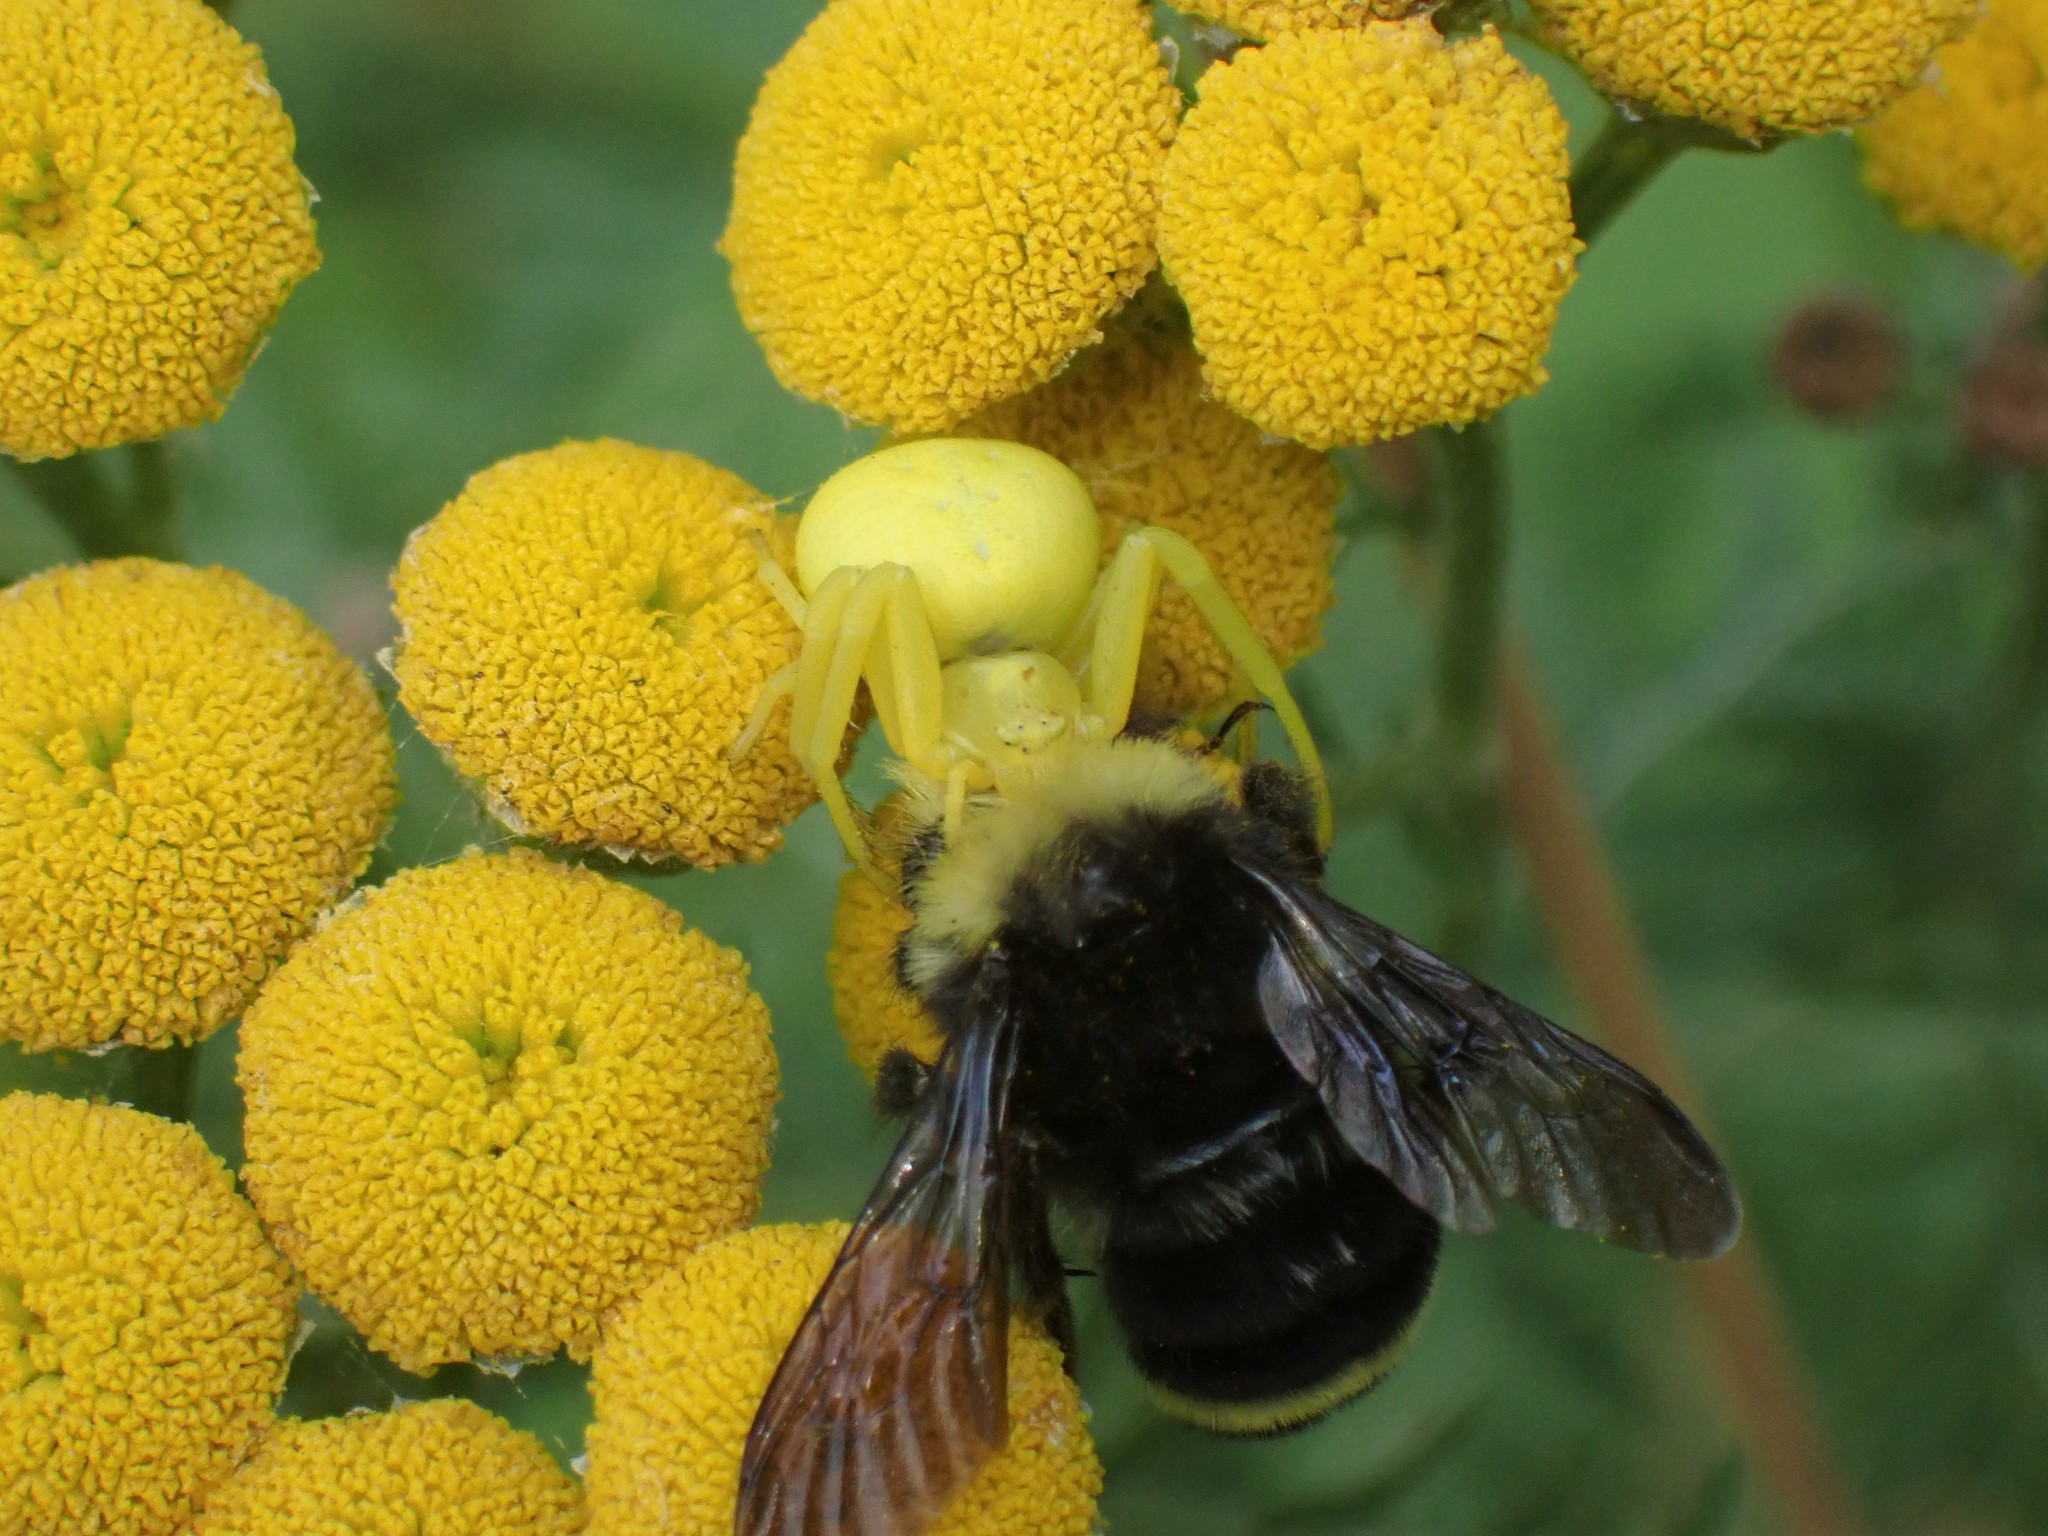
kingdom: Animalia
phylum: Arthropoda
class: Arachnida
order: Araneae
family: Thomisidae
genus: Misumena
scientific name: Misumena vatia
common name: Goldenrod crab spider
